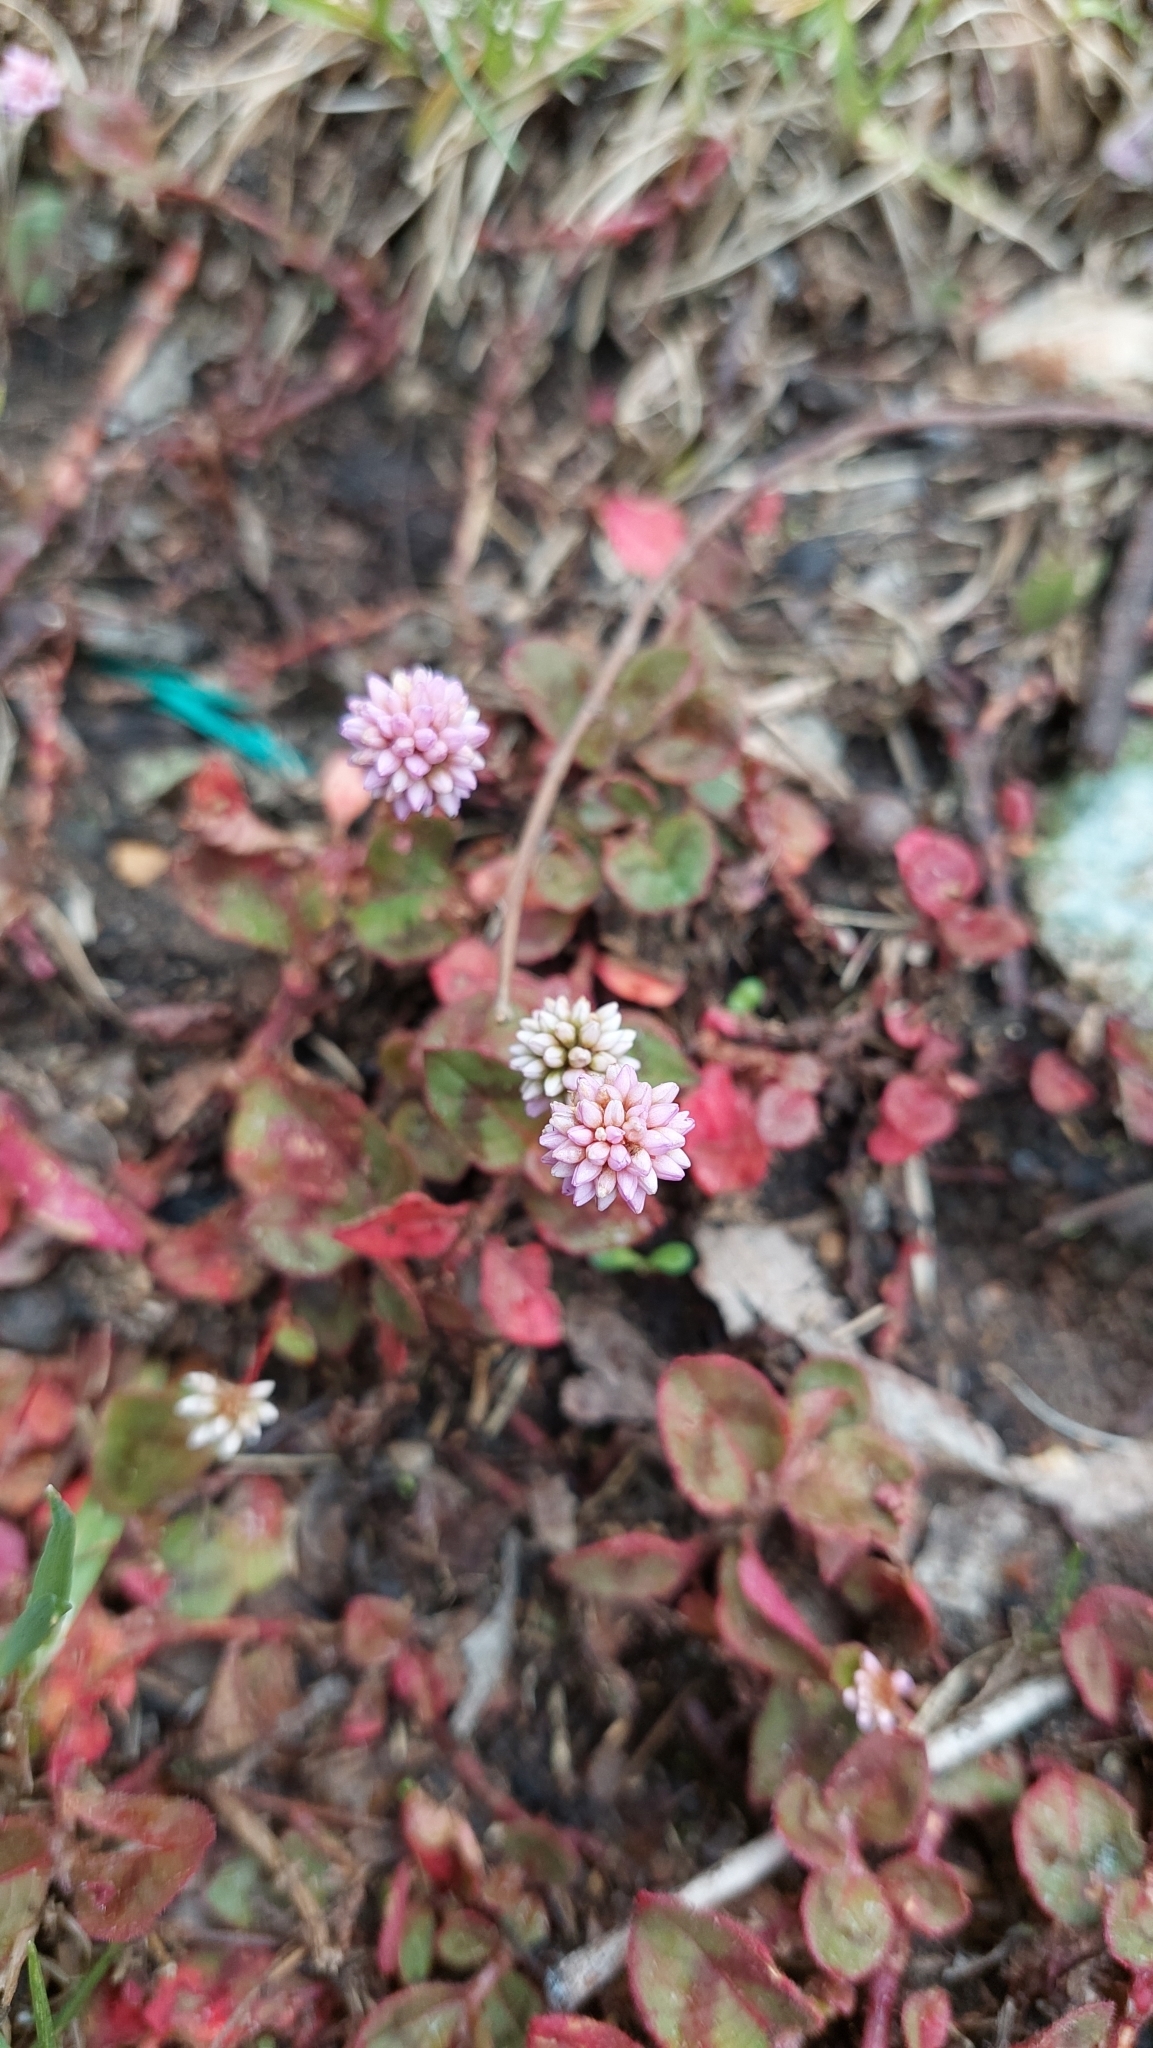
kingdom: Plantae
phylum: Tracheophyta
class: Magnoliopsida
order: Caryophyllales
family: Polygonaceae
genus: Persicaria
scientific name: Persicaria capitata
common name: Pinkhead smartweed
